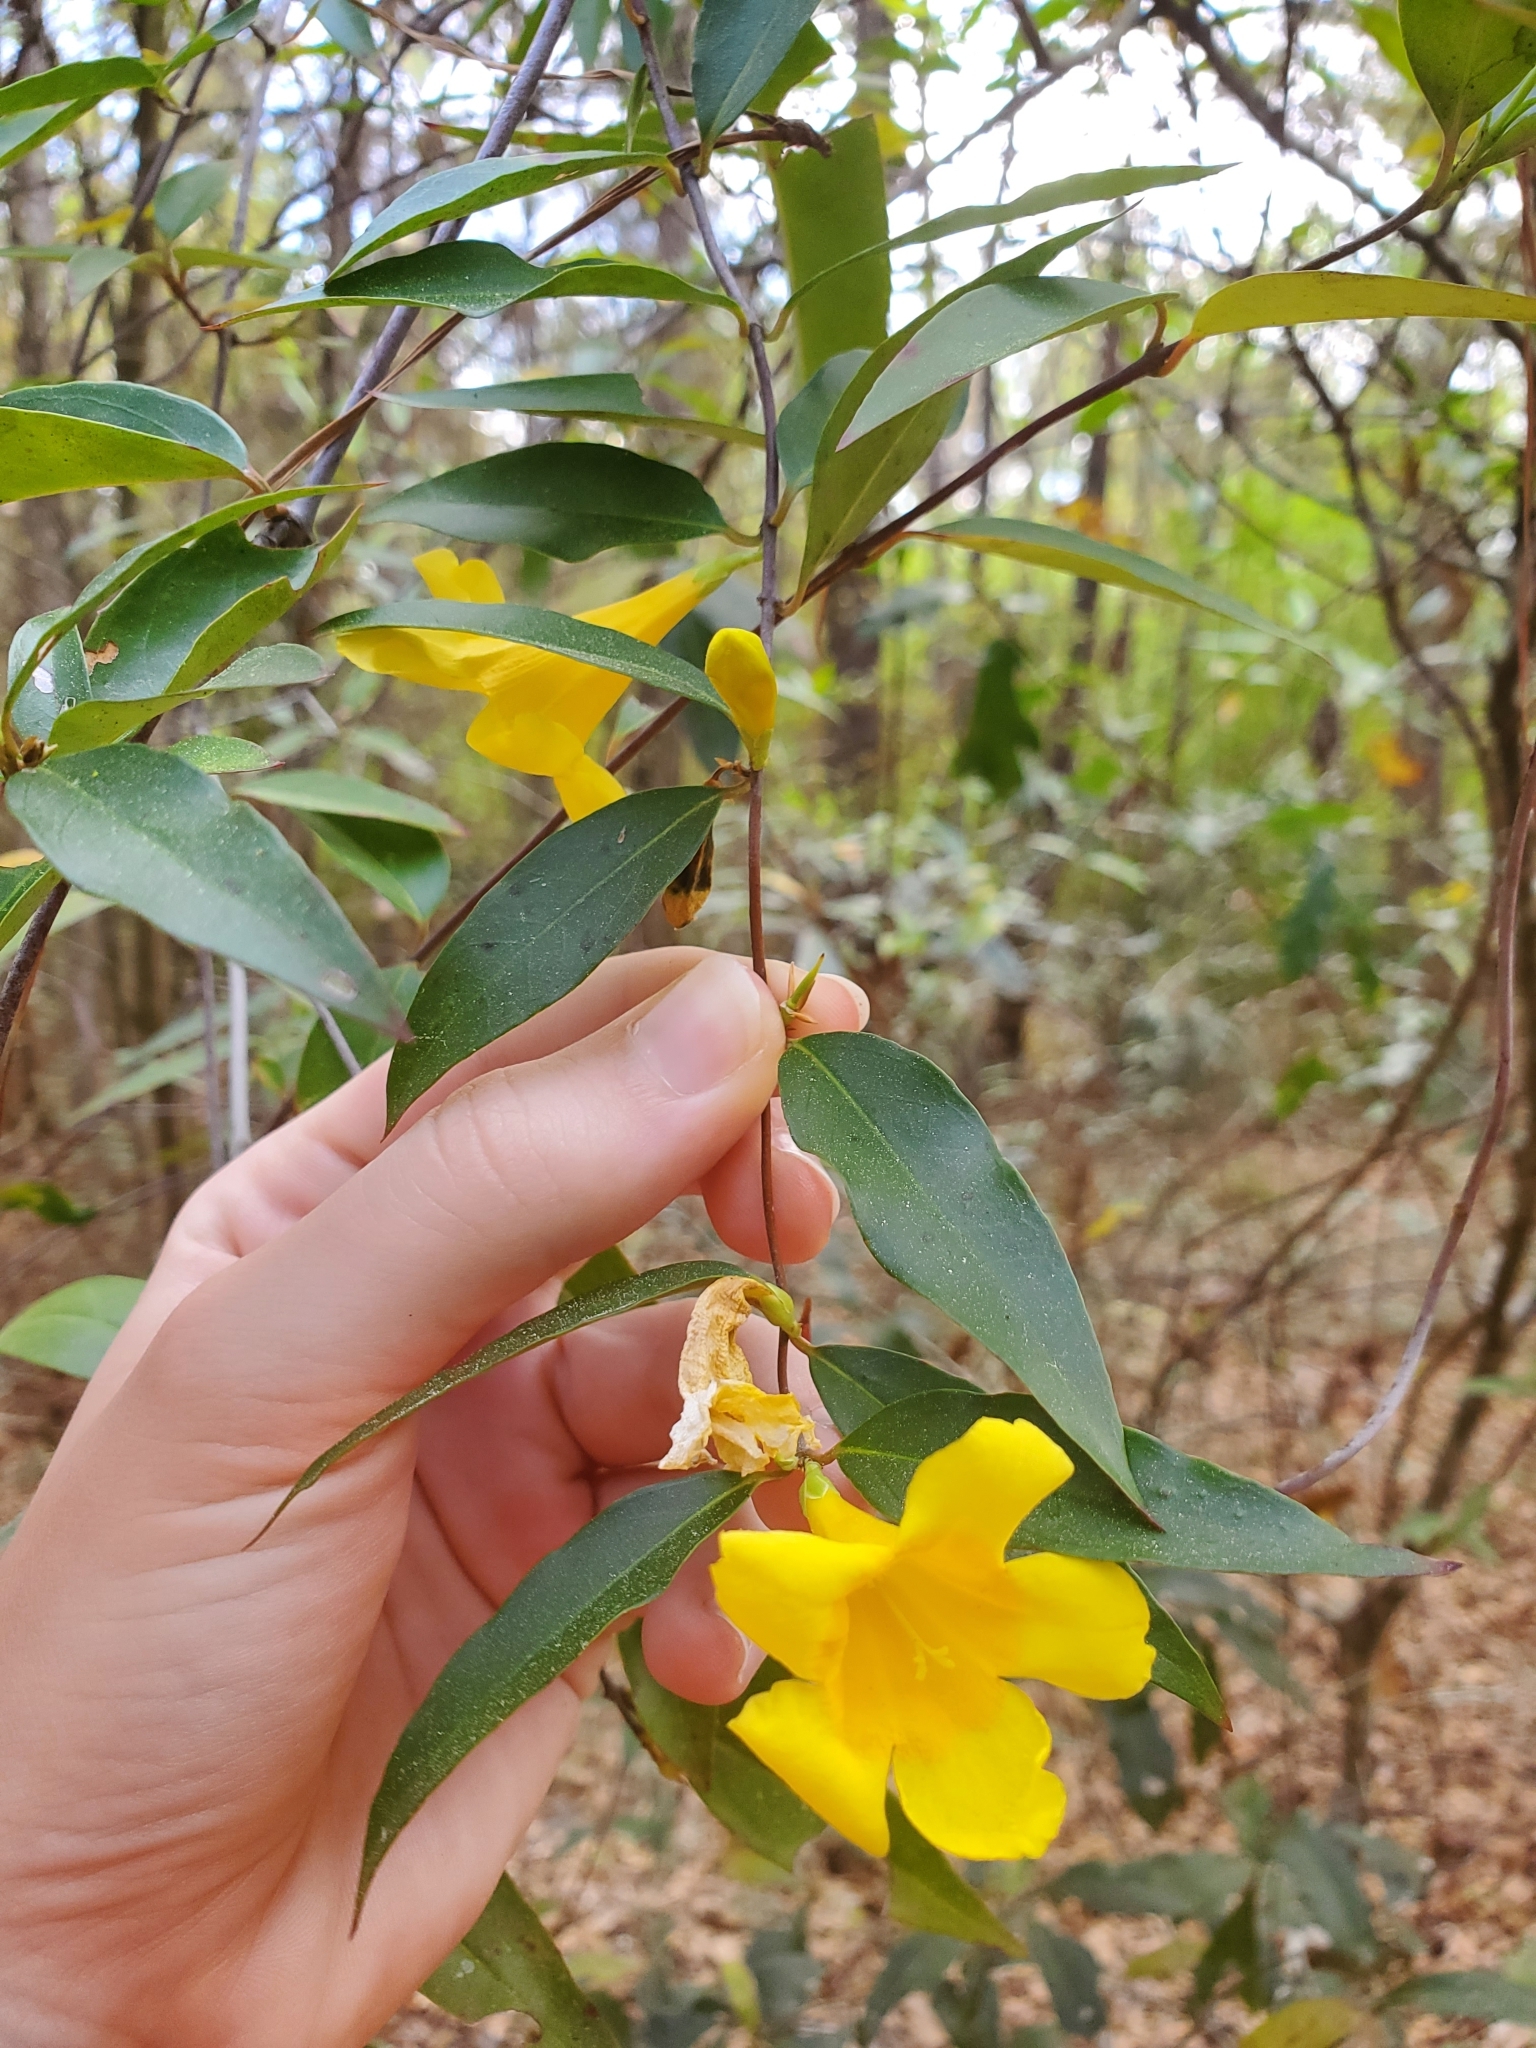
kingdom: Plantae
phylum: Tracheophyta
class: Magnoliopsida
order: Gentianales
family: Gelsemiaceae
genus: Gelsemium
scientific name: Gelsemium sempervirens
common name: Carolina-jasmine
